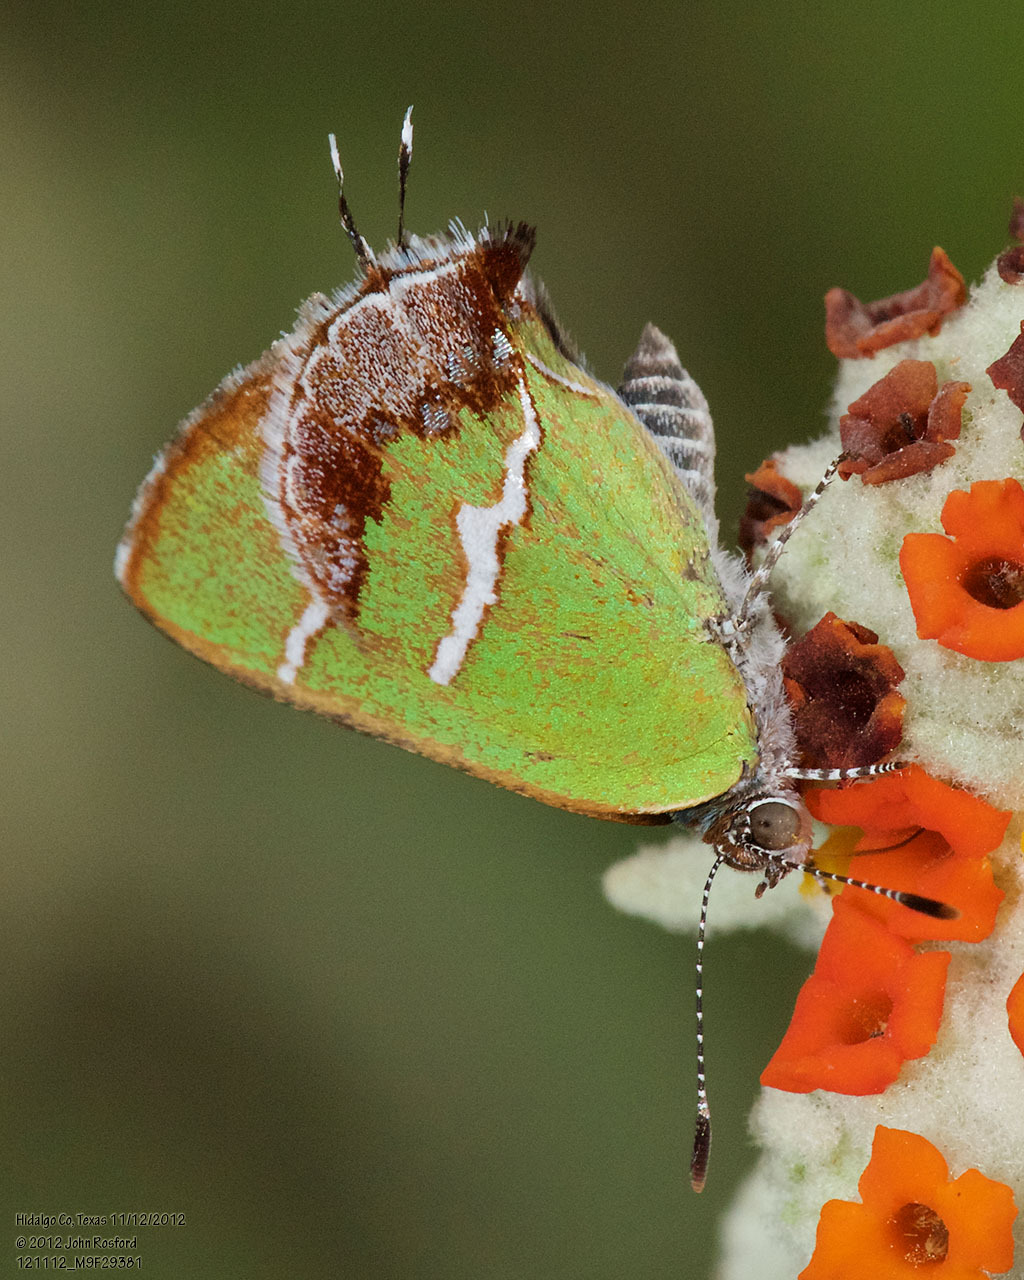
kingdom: Animalia
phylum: Arthropoda
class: Insecta
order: Lepidoptera
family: Lycaenidae
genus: Chlorostrymon
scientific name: Chlorostrymon simaethis
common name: Silver-banded hairstreak
